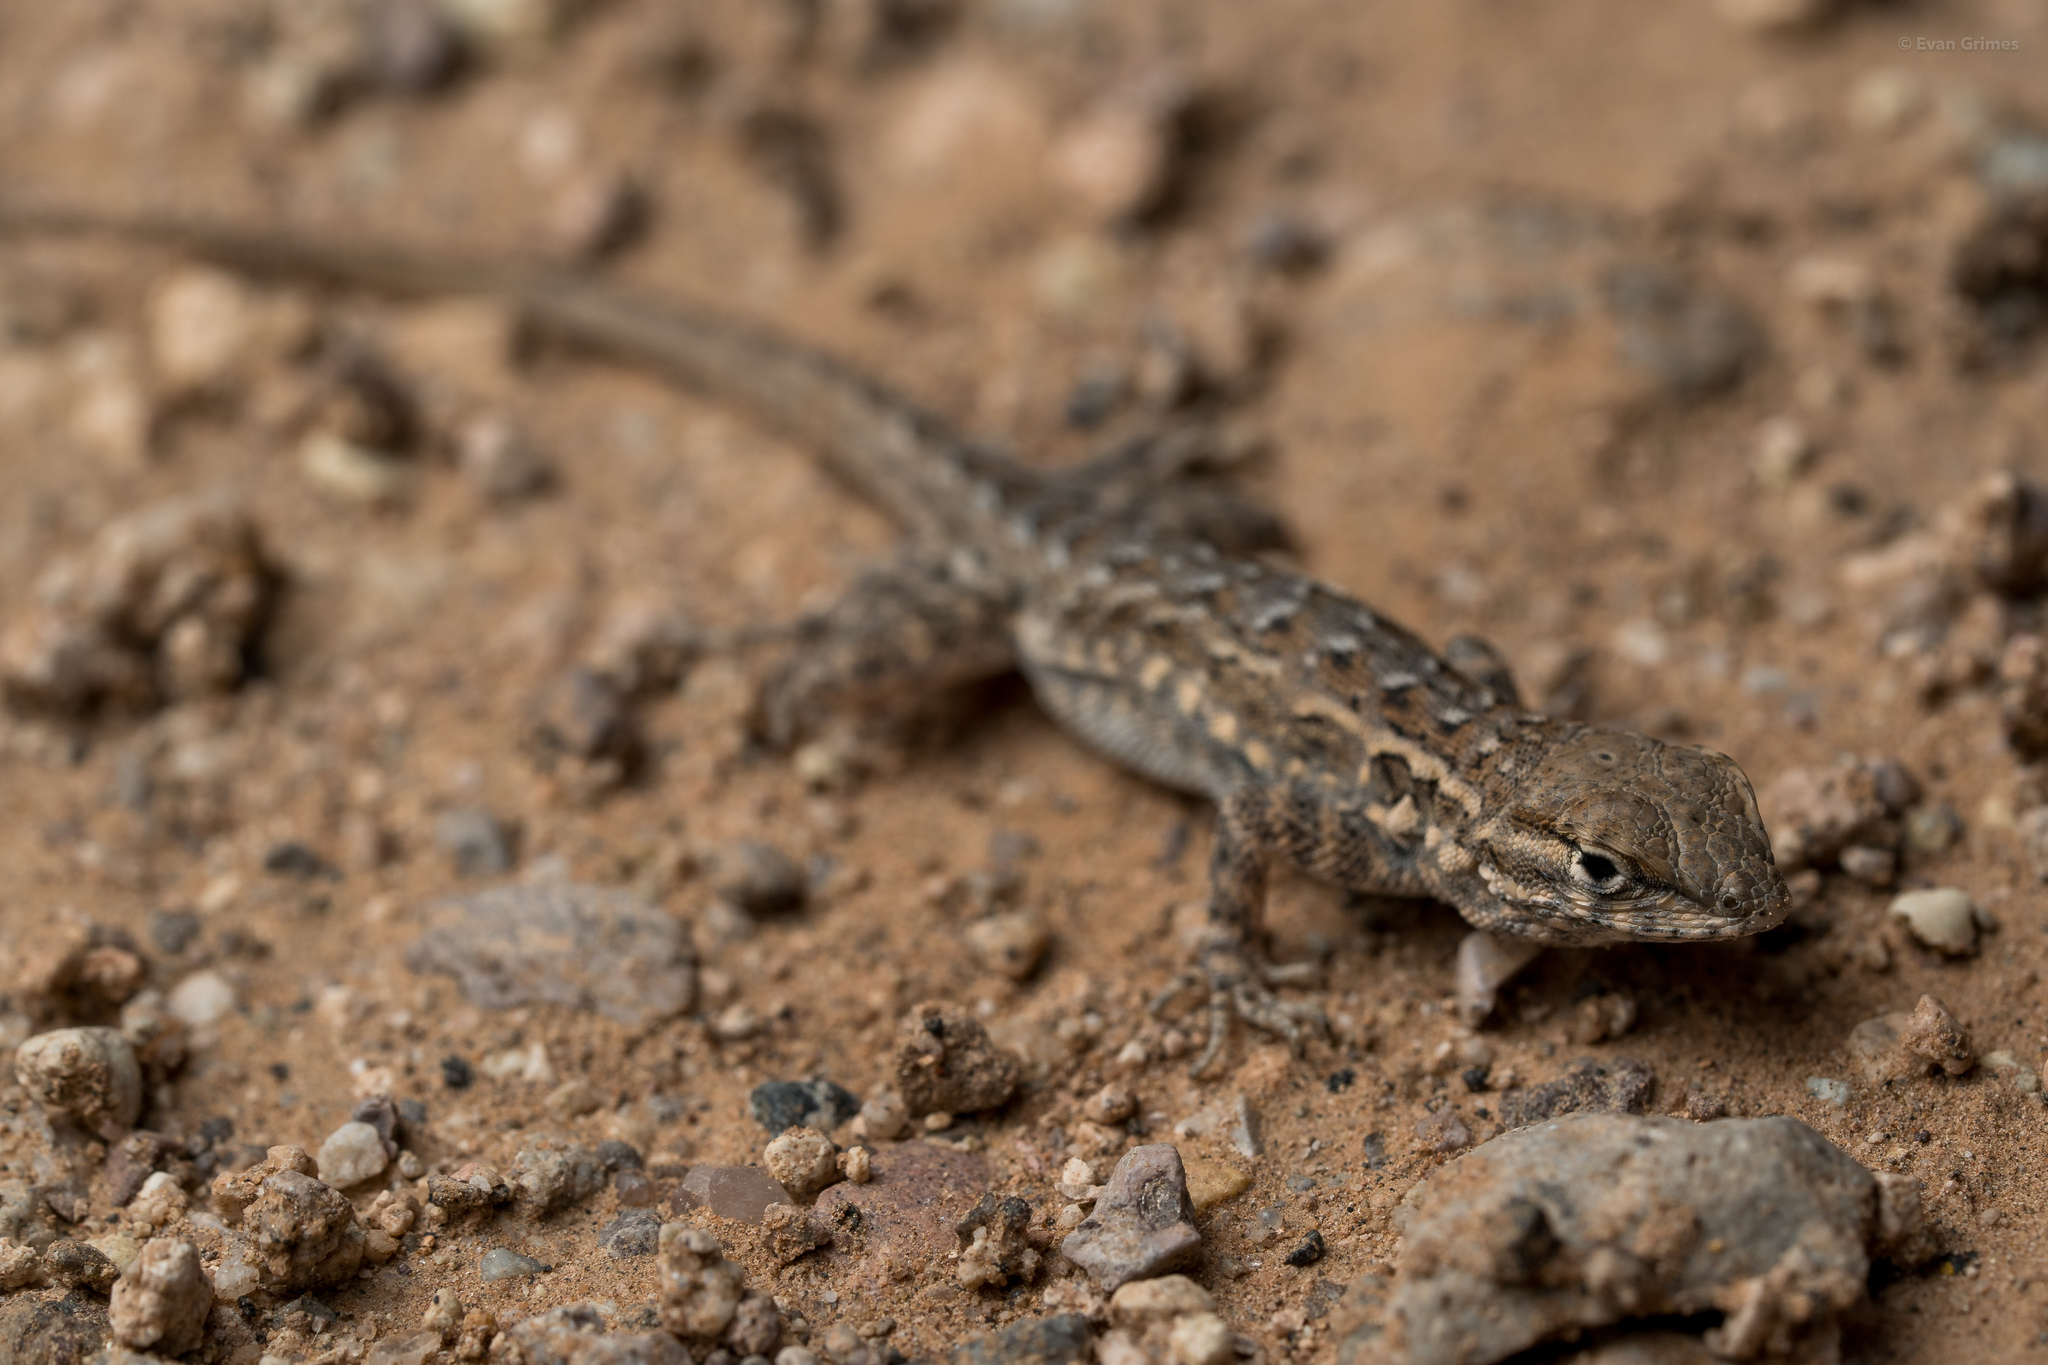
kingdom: Animalia
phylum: Chordata
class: Squamata
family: Phrynosomatidae
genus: Uta
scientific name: Uta stansburiana
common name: Side-blotched lizard
